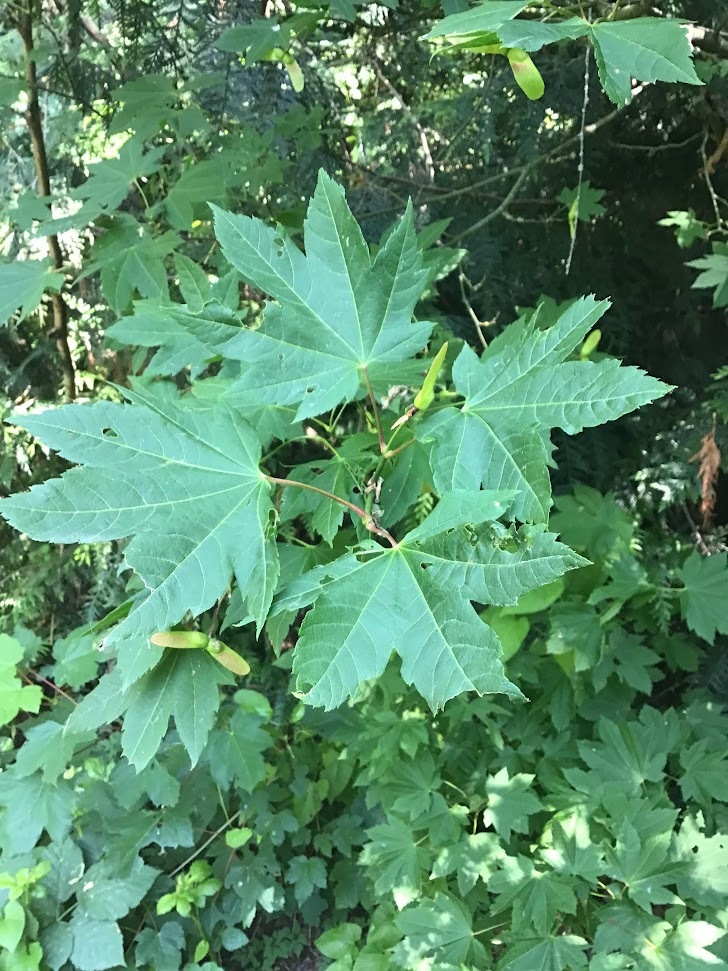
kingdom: Plantae
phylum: Tracheophyta
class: Magnoliopsida
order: Sapindales
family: Sapindaceae
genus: Acer
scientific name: Acer circinatum
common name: Vine maple
